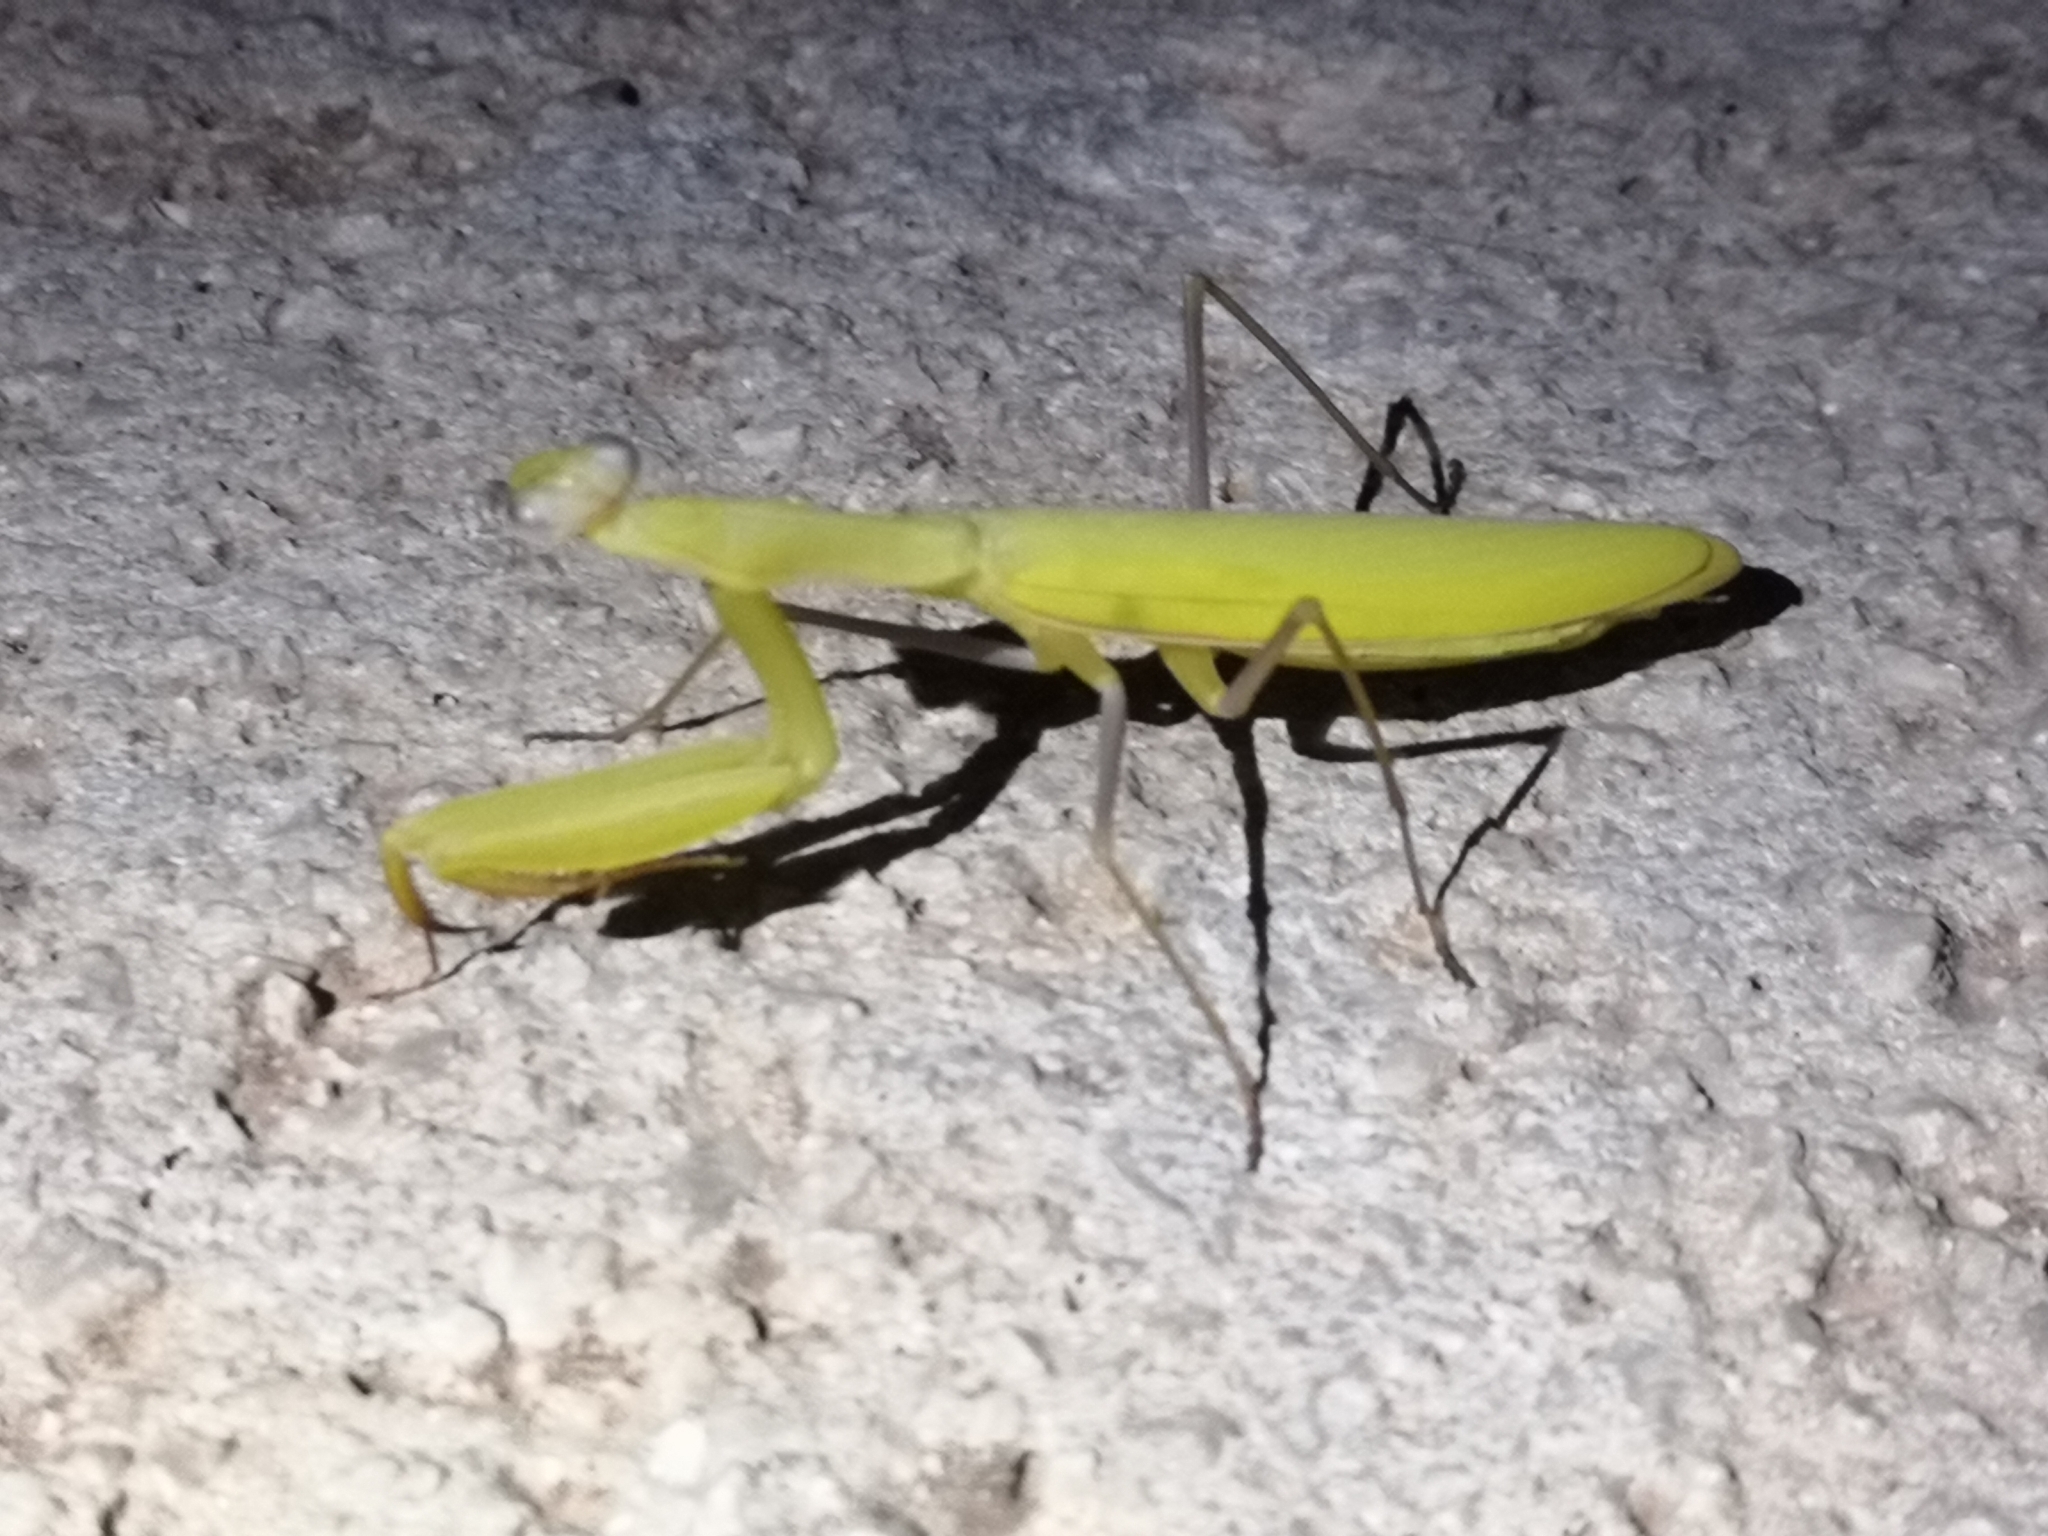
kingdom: Animalia
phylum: Arthropoda
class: Insecta
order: Mantodea
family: Mantidae
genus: Mantis
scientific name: Mantis religiosa
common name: Praying mantis
